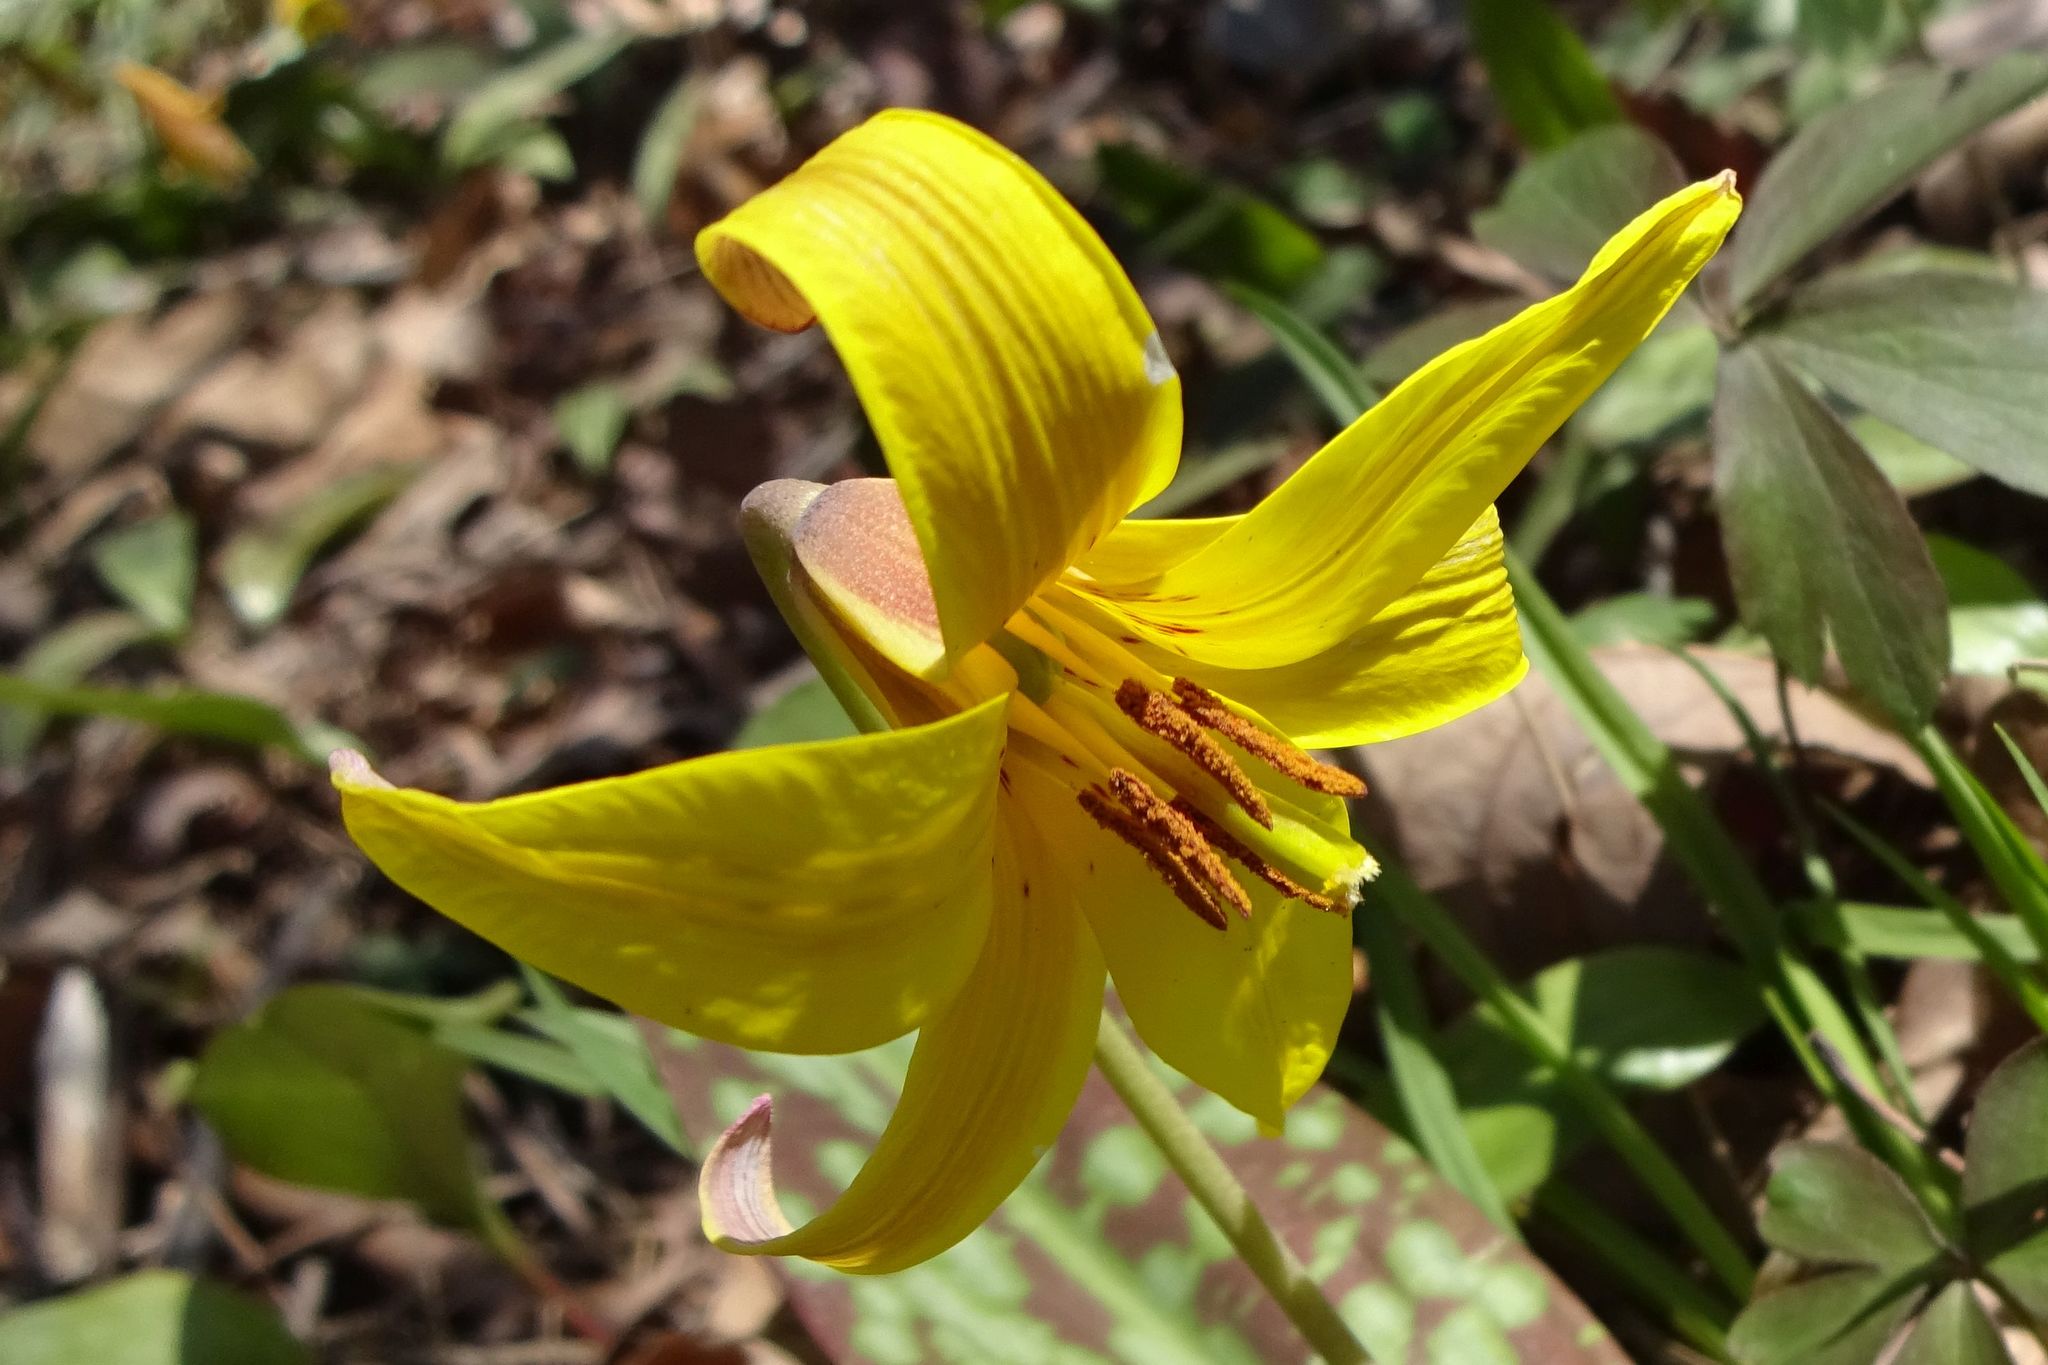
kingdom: Plantae
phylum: Tracheophyta
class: Liliopsida
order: Liliales
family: Liliaceae
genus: Erythronium
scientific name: Erythronium americanum
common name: Yellow adder's-tongue
